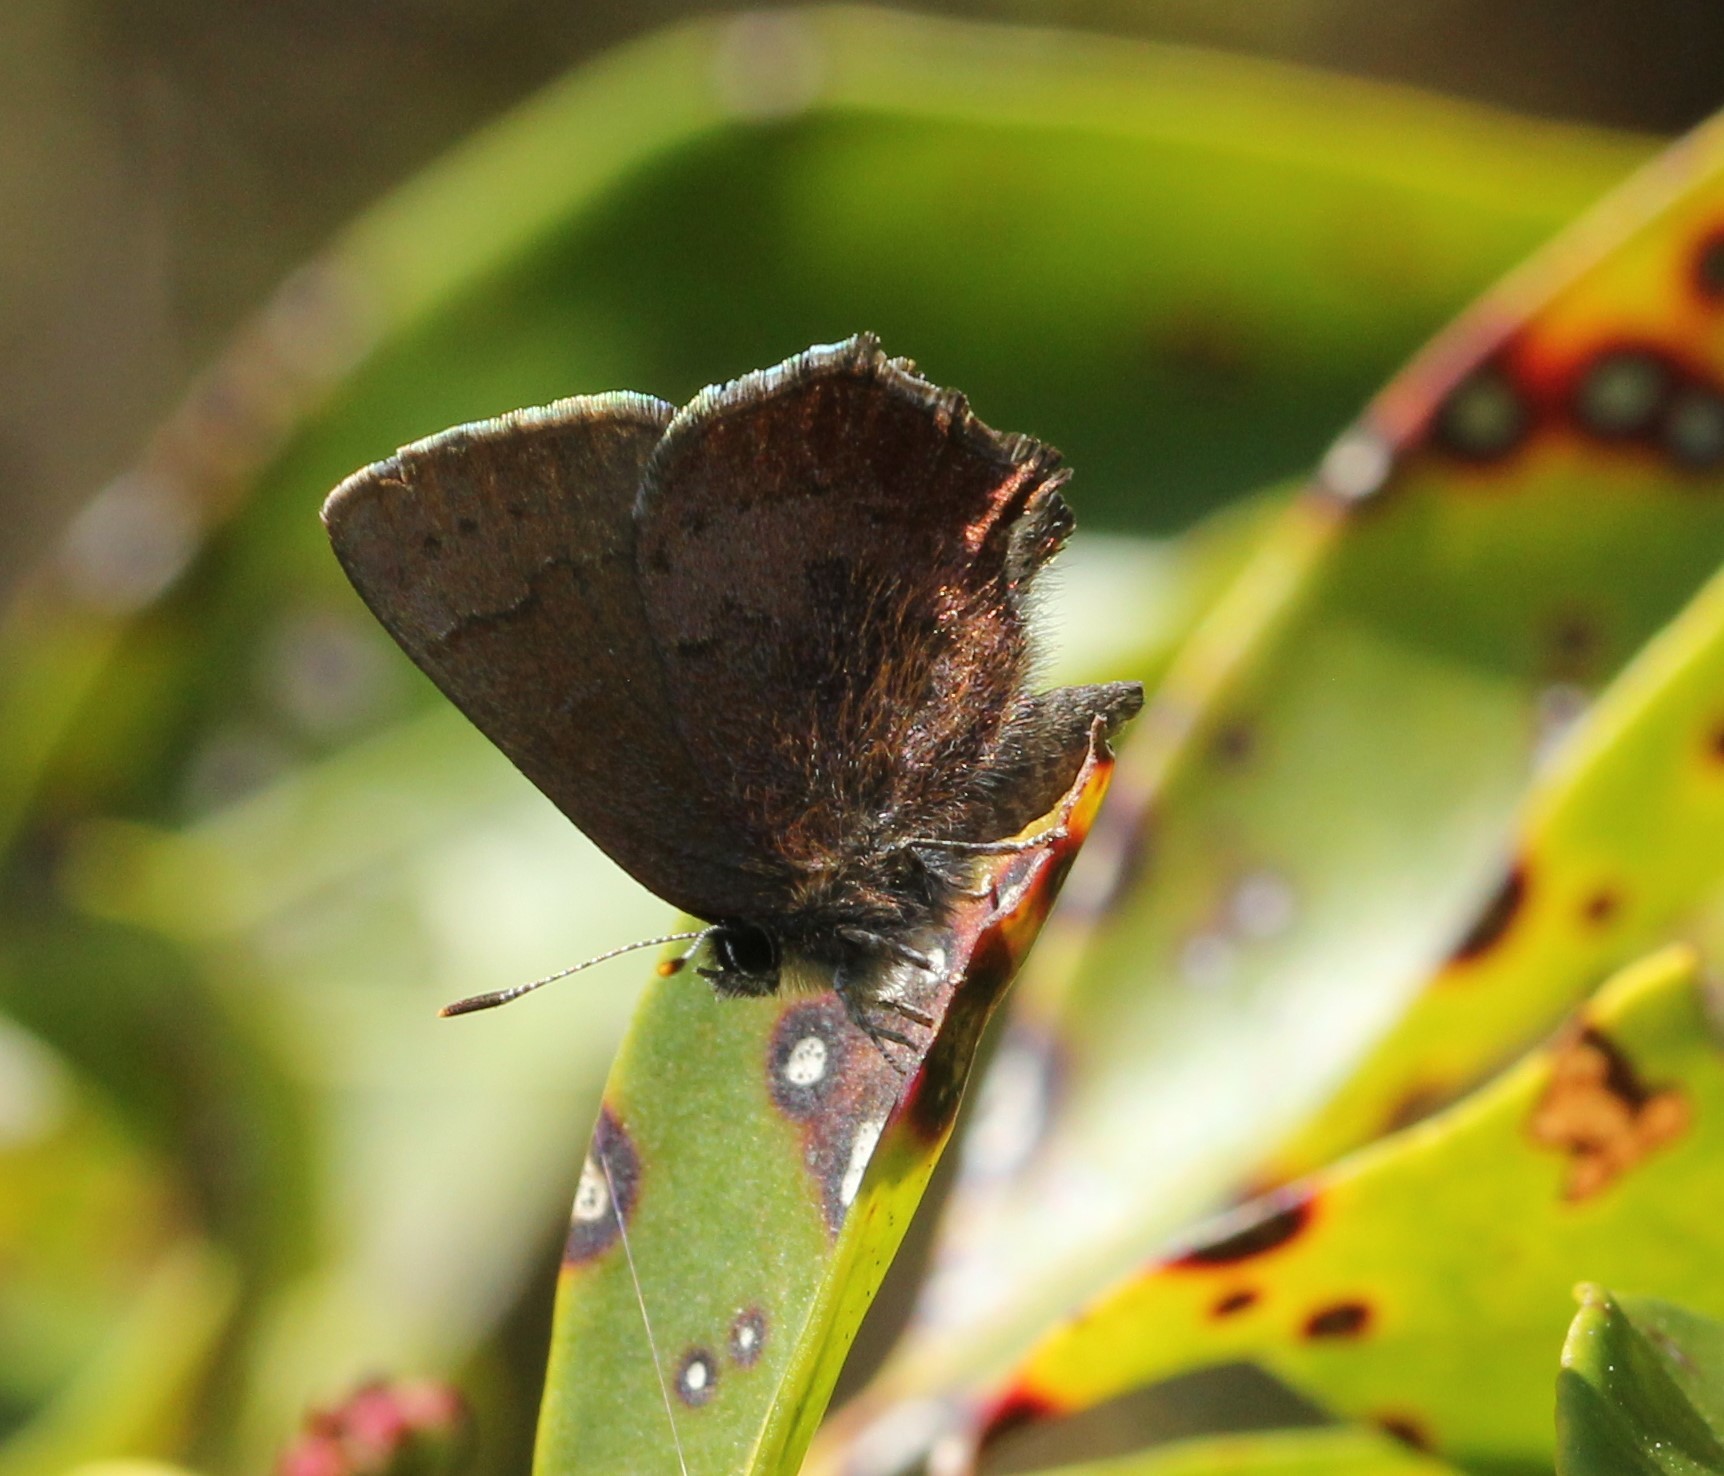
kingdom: Animalia
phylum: Arthropoda
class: Insecta
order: Lepidoptera
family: Lycaenidae
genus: Incisalia
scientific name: Incisalia irioides
